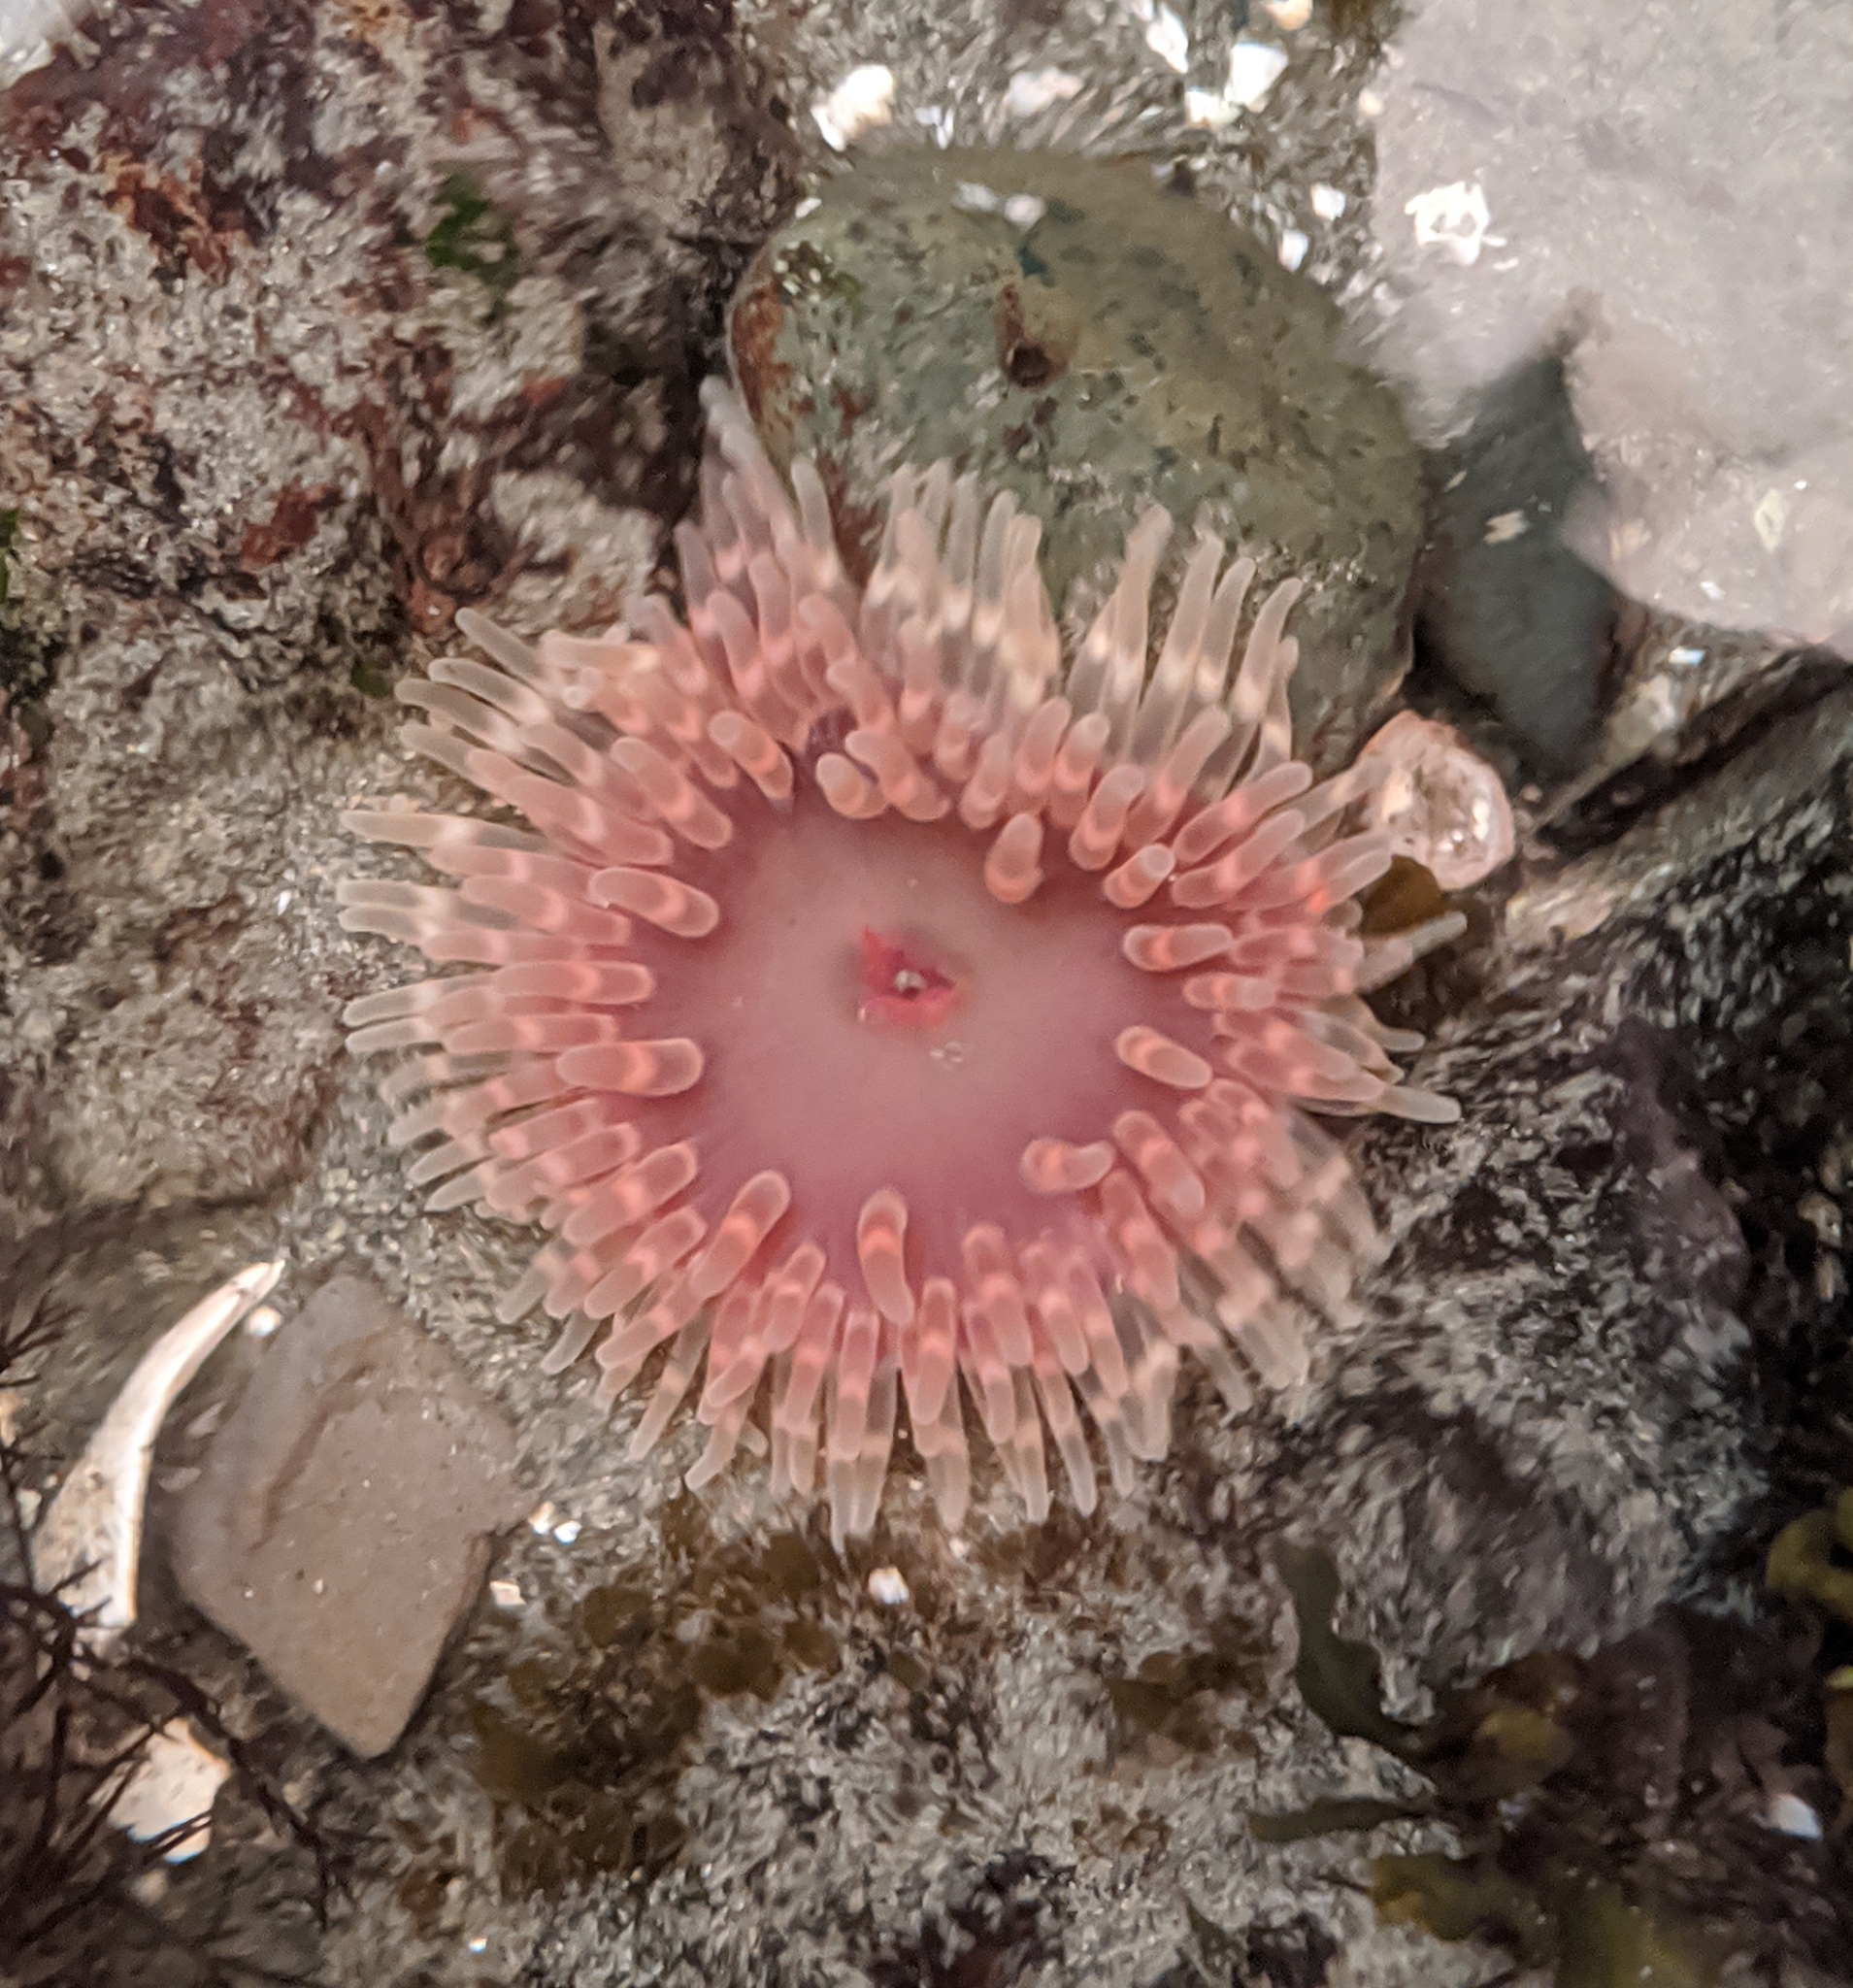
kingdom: Animalia
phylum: Cnidaria
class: Anthozoa
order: Actiniaria
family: Actiniidae
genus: Urticina
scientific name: Urticina clandestina
